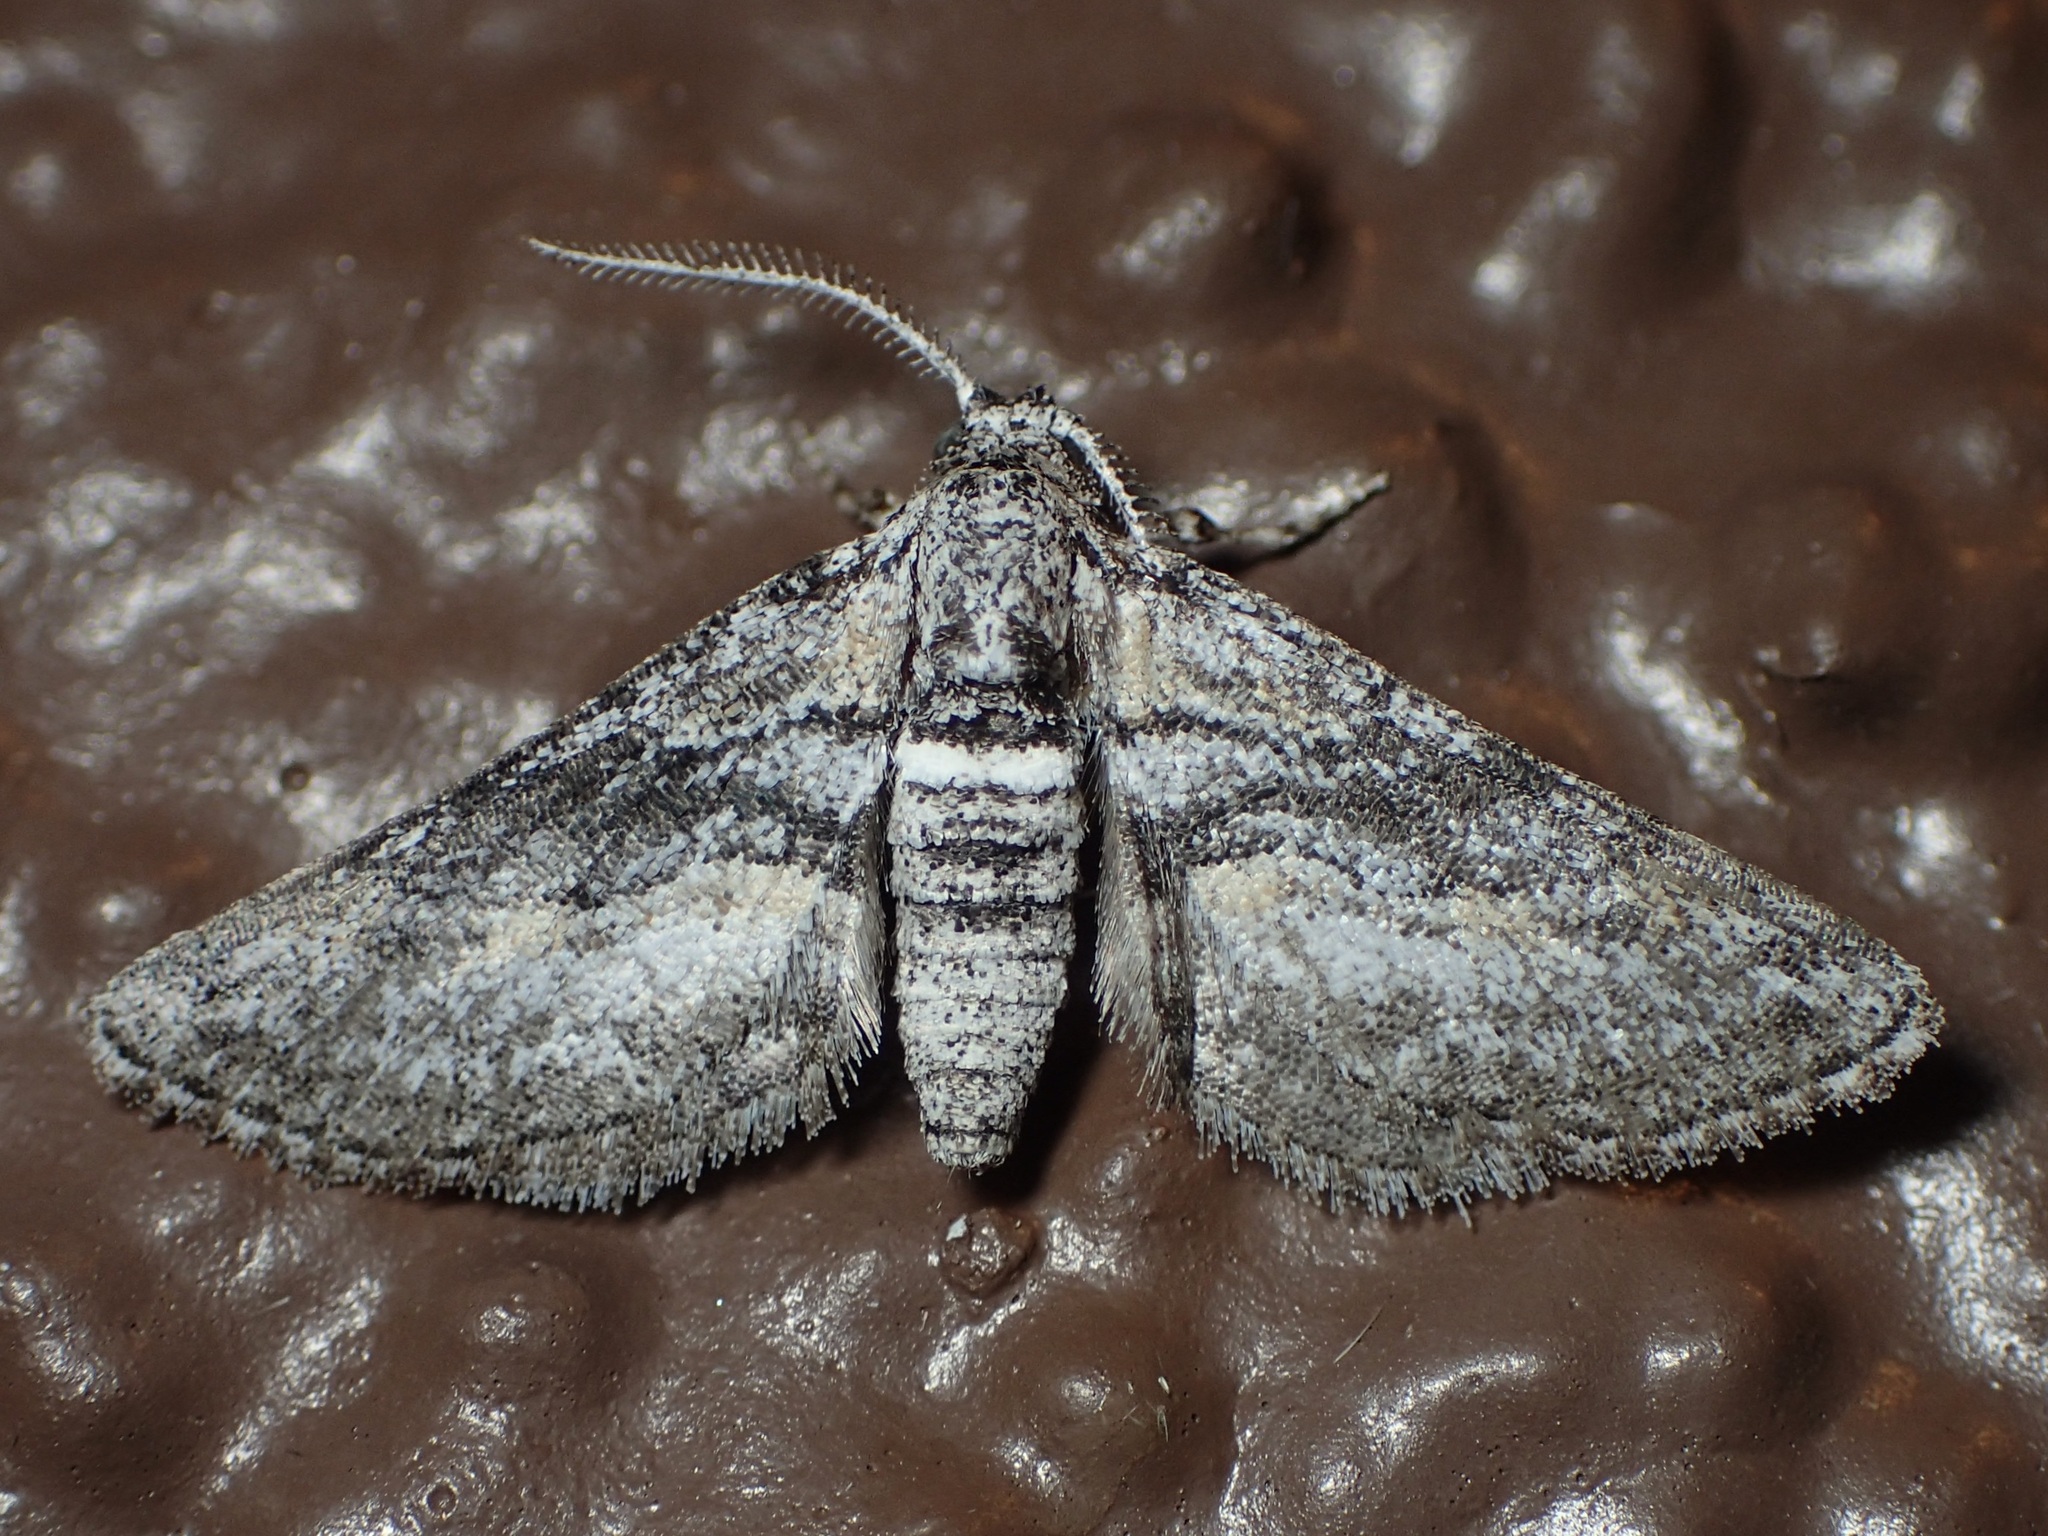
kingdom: Animalia
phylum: Arthropoda
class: Insecta
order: Lepidoptera
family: Geometridae
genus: Eubarnesia
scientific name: Eubarnesia ritaria
